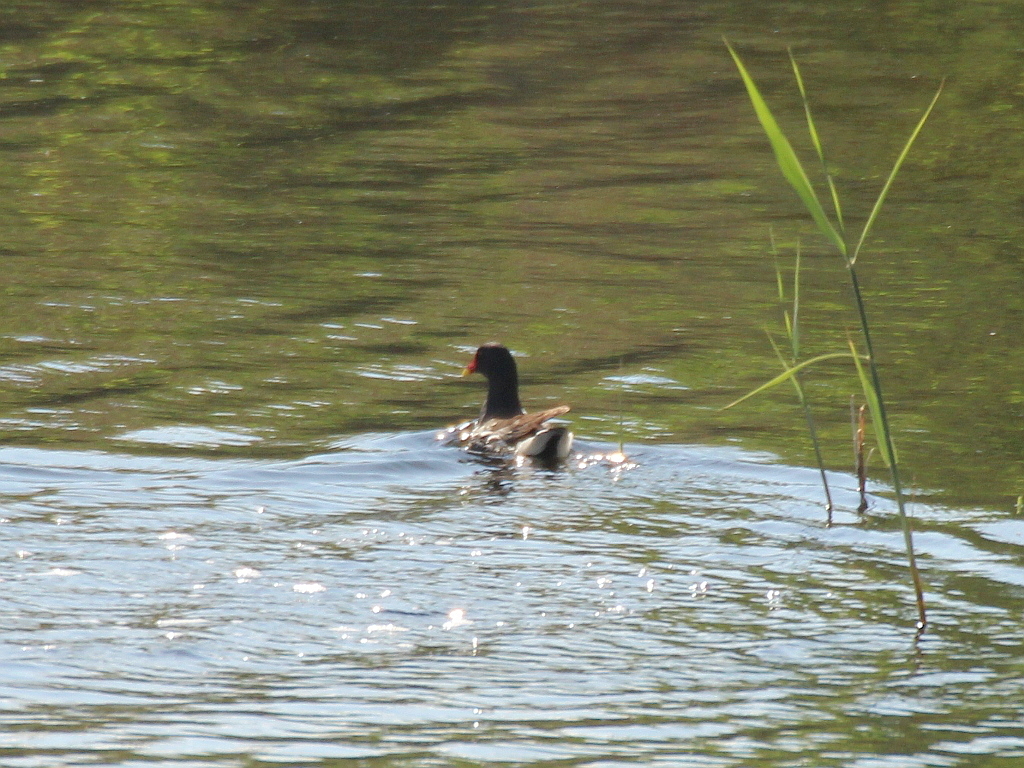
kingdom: Animalia
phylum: Chordata
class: Aves
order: Gruiformes
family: Rallidae
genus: Gallinula
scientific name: Gallinula chloropus
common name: Common moorhen
